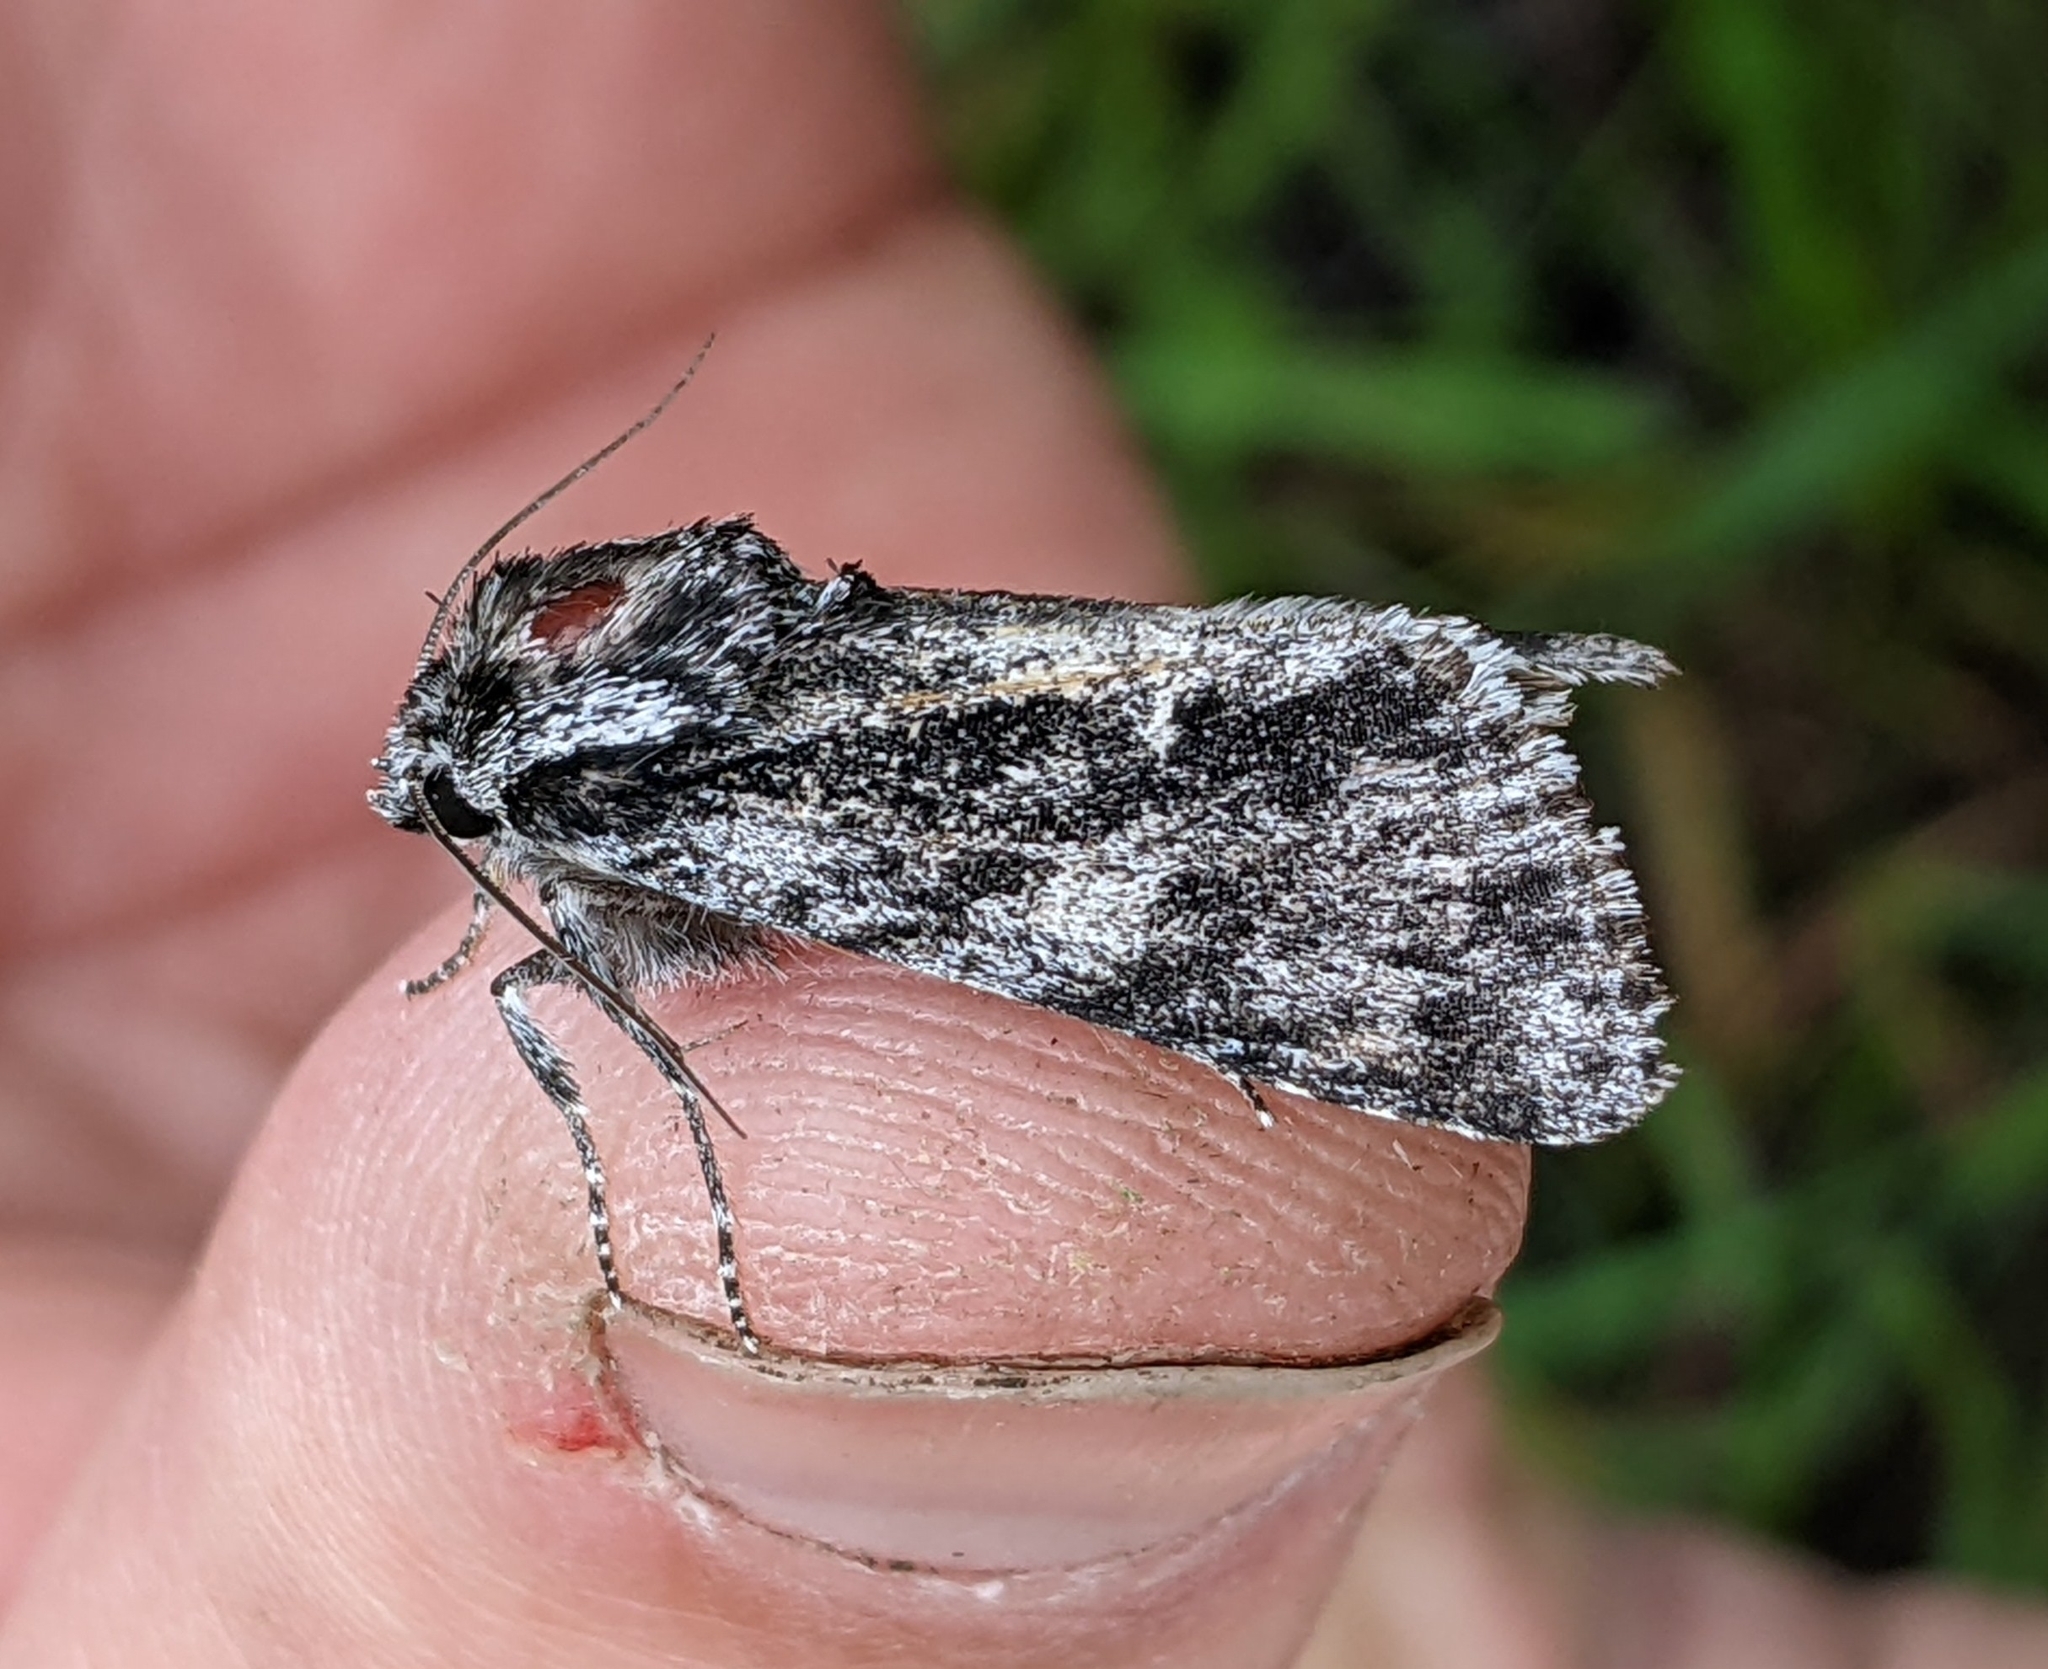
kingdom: Animalia
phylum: Arthropoda
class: Insecta
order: Lepidoptera
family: Noctuidae
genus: Acronicta
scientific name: Acronicta perdita
